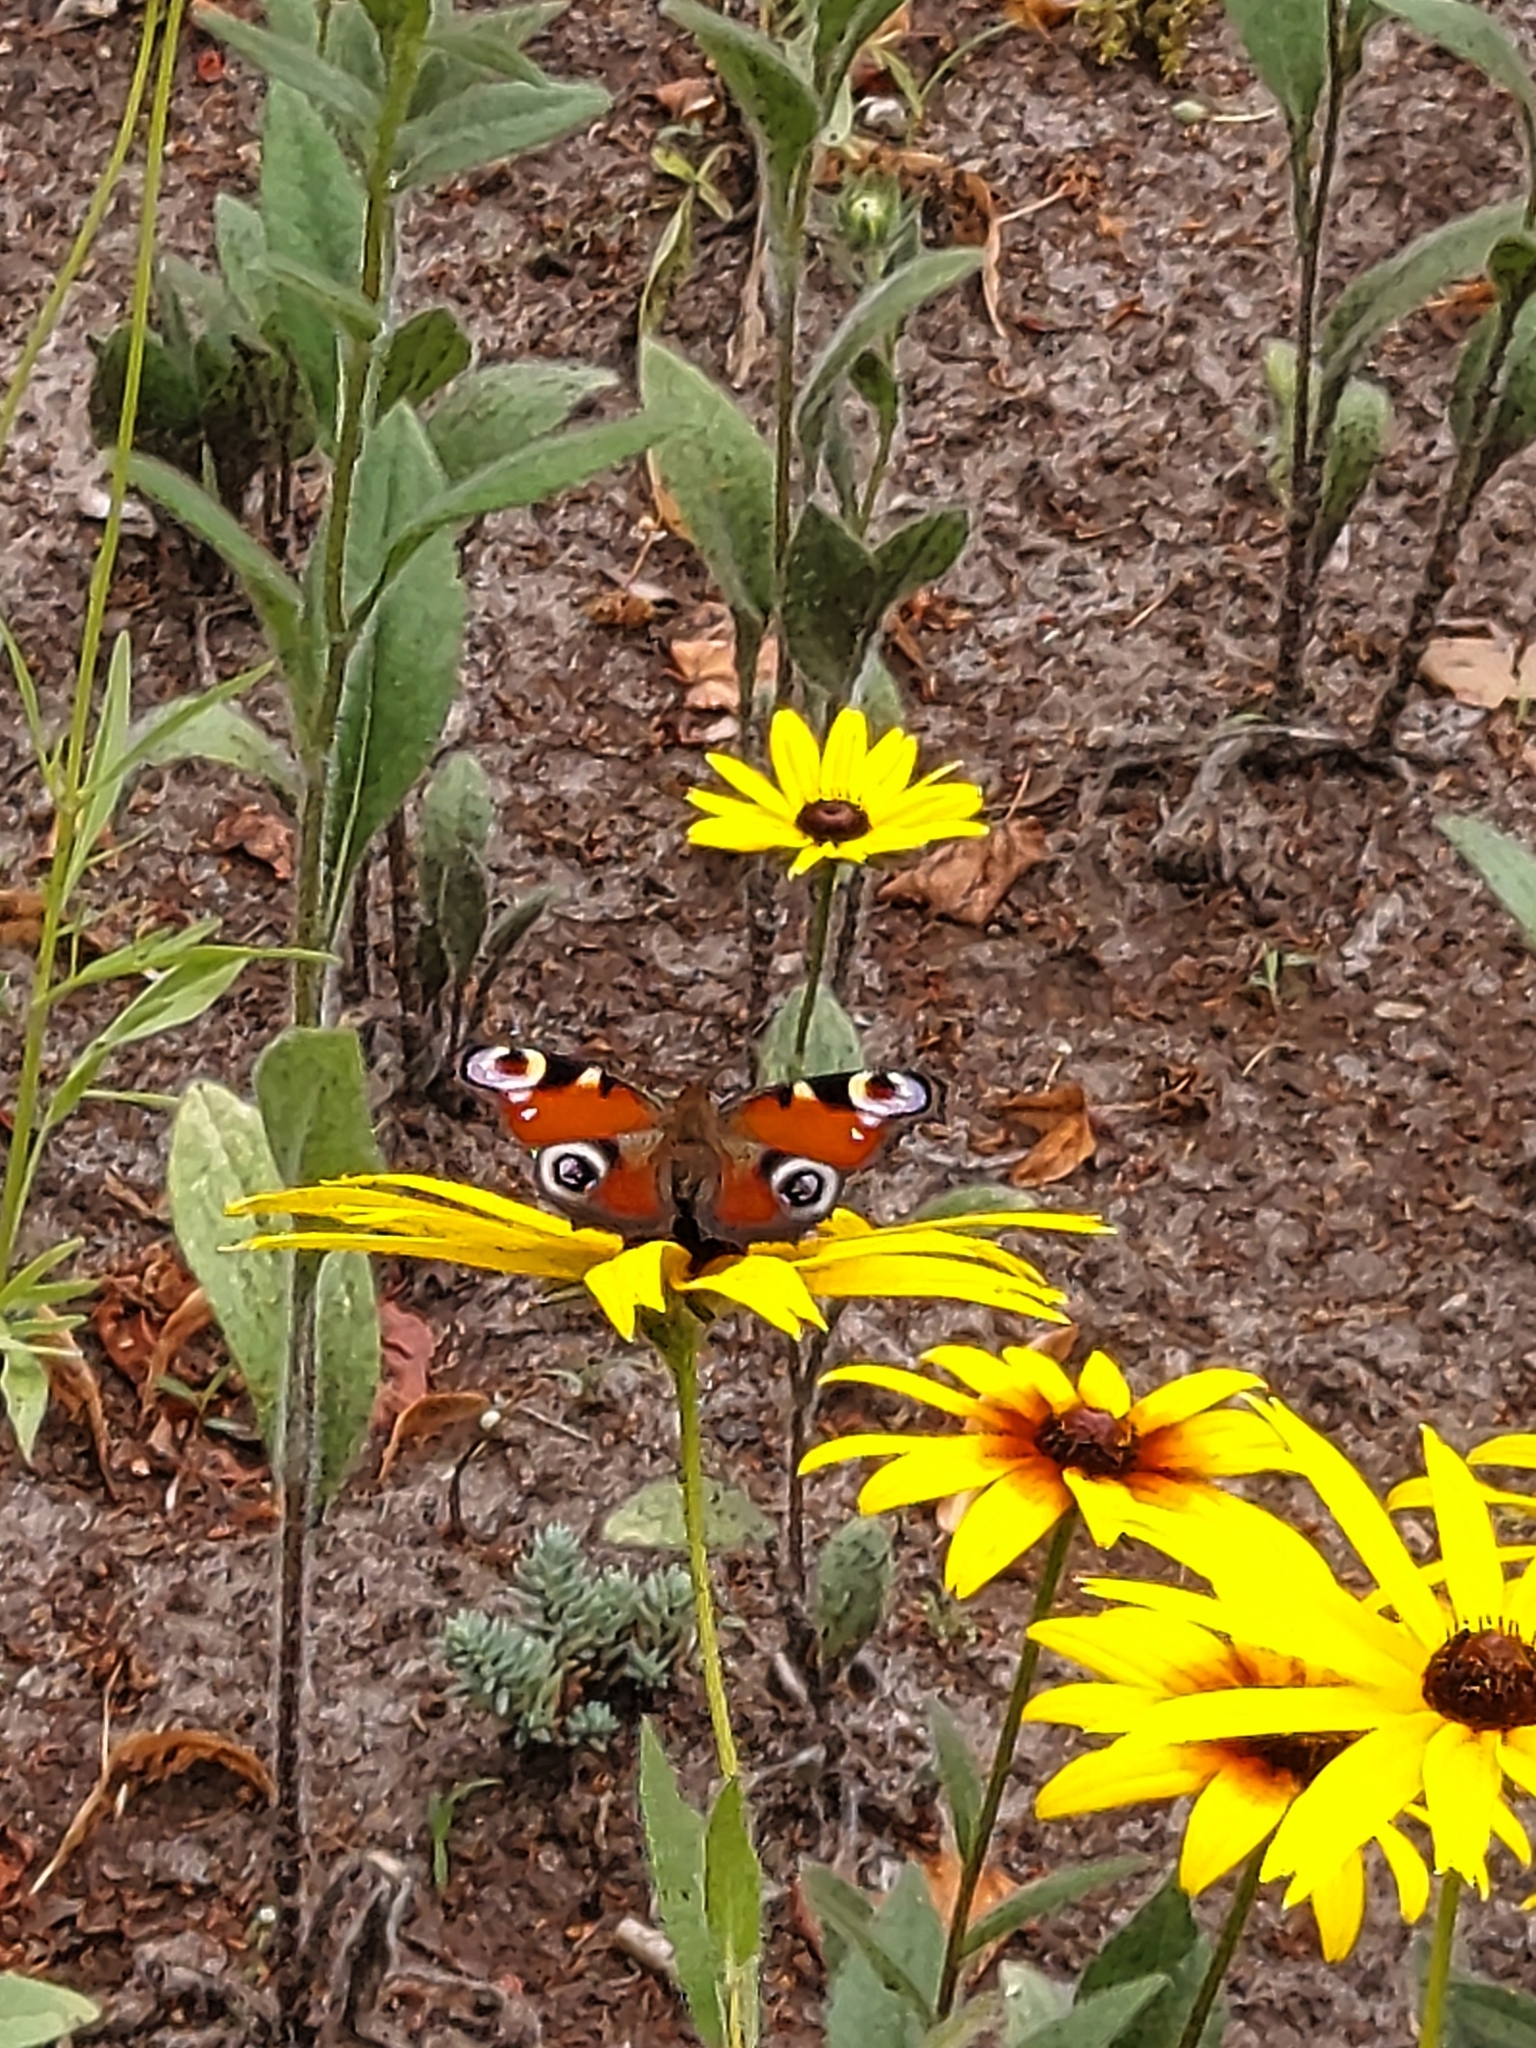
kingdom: Animalia
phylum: Arthropoda
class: Insecta
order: Lepidoptera
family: Nymphalidae
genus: Aglais
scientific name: Aglais io
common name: Peacock
